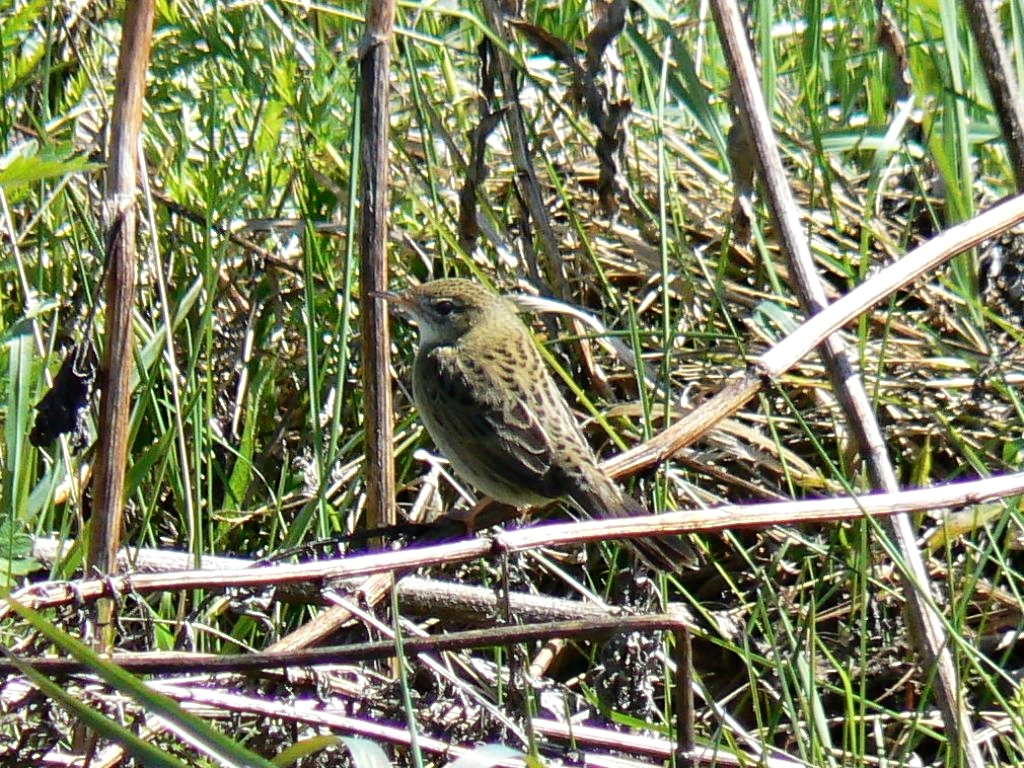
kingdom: Animalia
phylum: Chordata
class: Aves
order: Passeriformes
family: Locustellidae
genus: Locustella
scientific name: Locustella naevia
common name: Common grasshopper warbler
